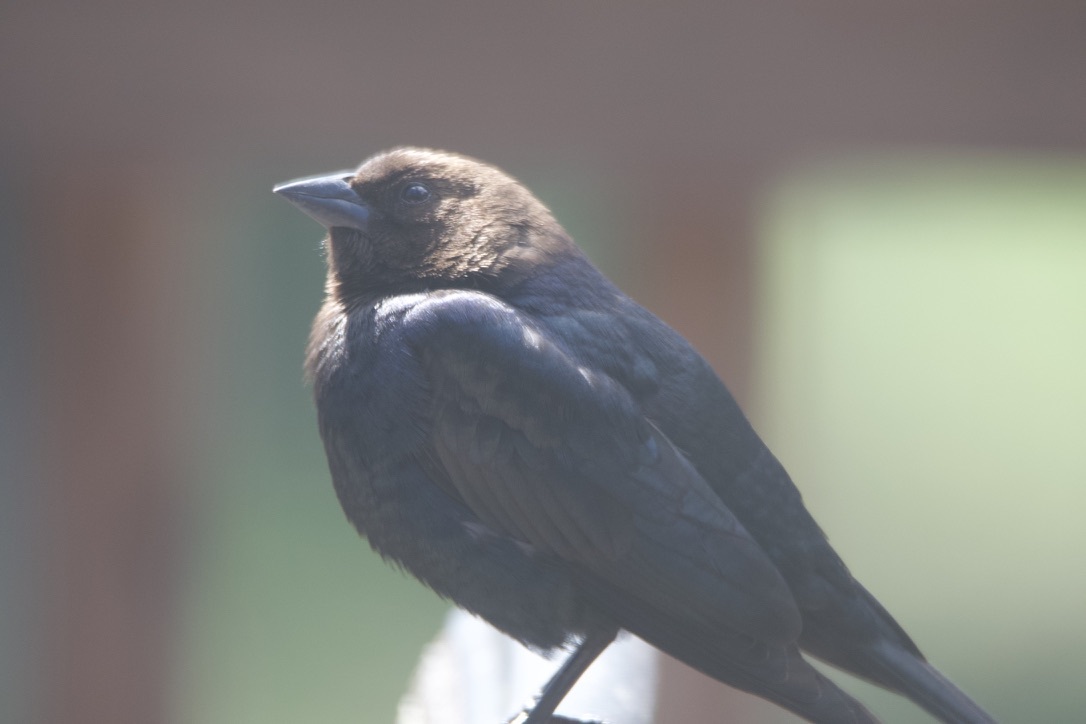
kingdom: Animalia
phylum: Chordata
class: Aves
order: Passeriformes
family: Icteridae
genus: Molothrus
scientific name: Molothrus ater
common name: Brown-headed cowbird
